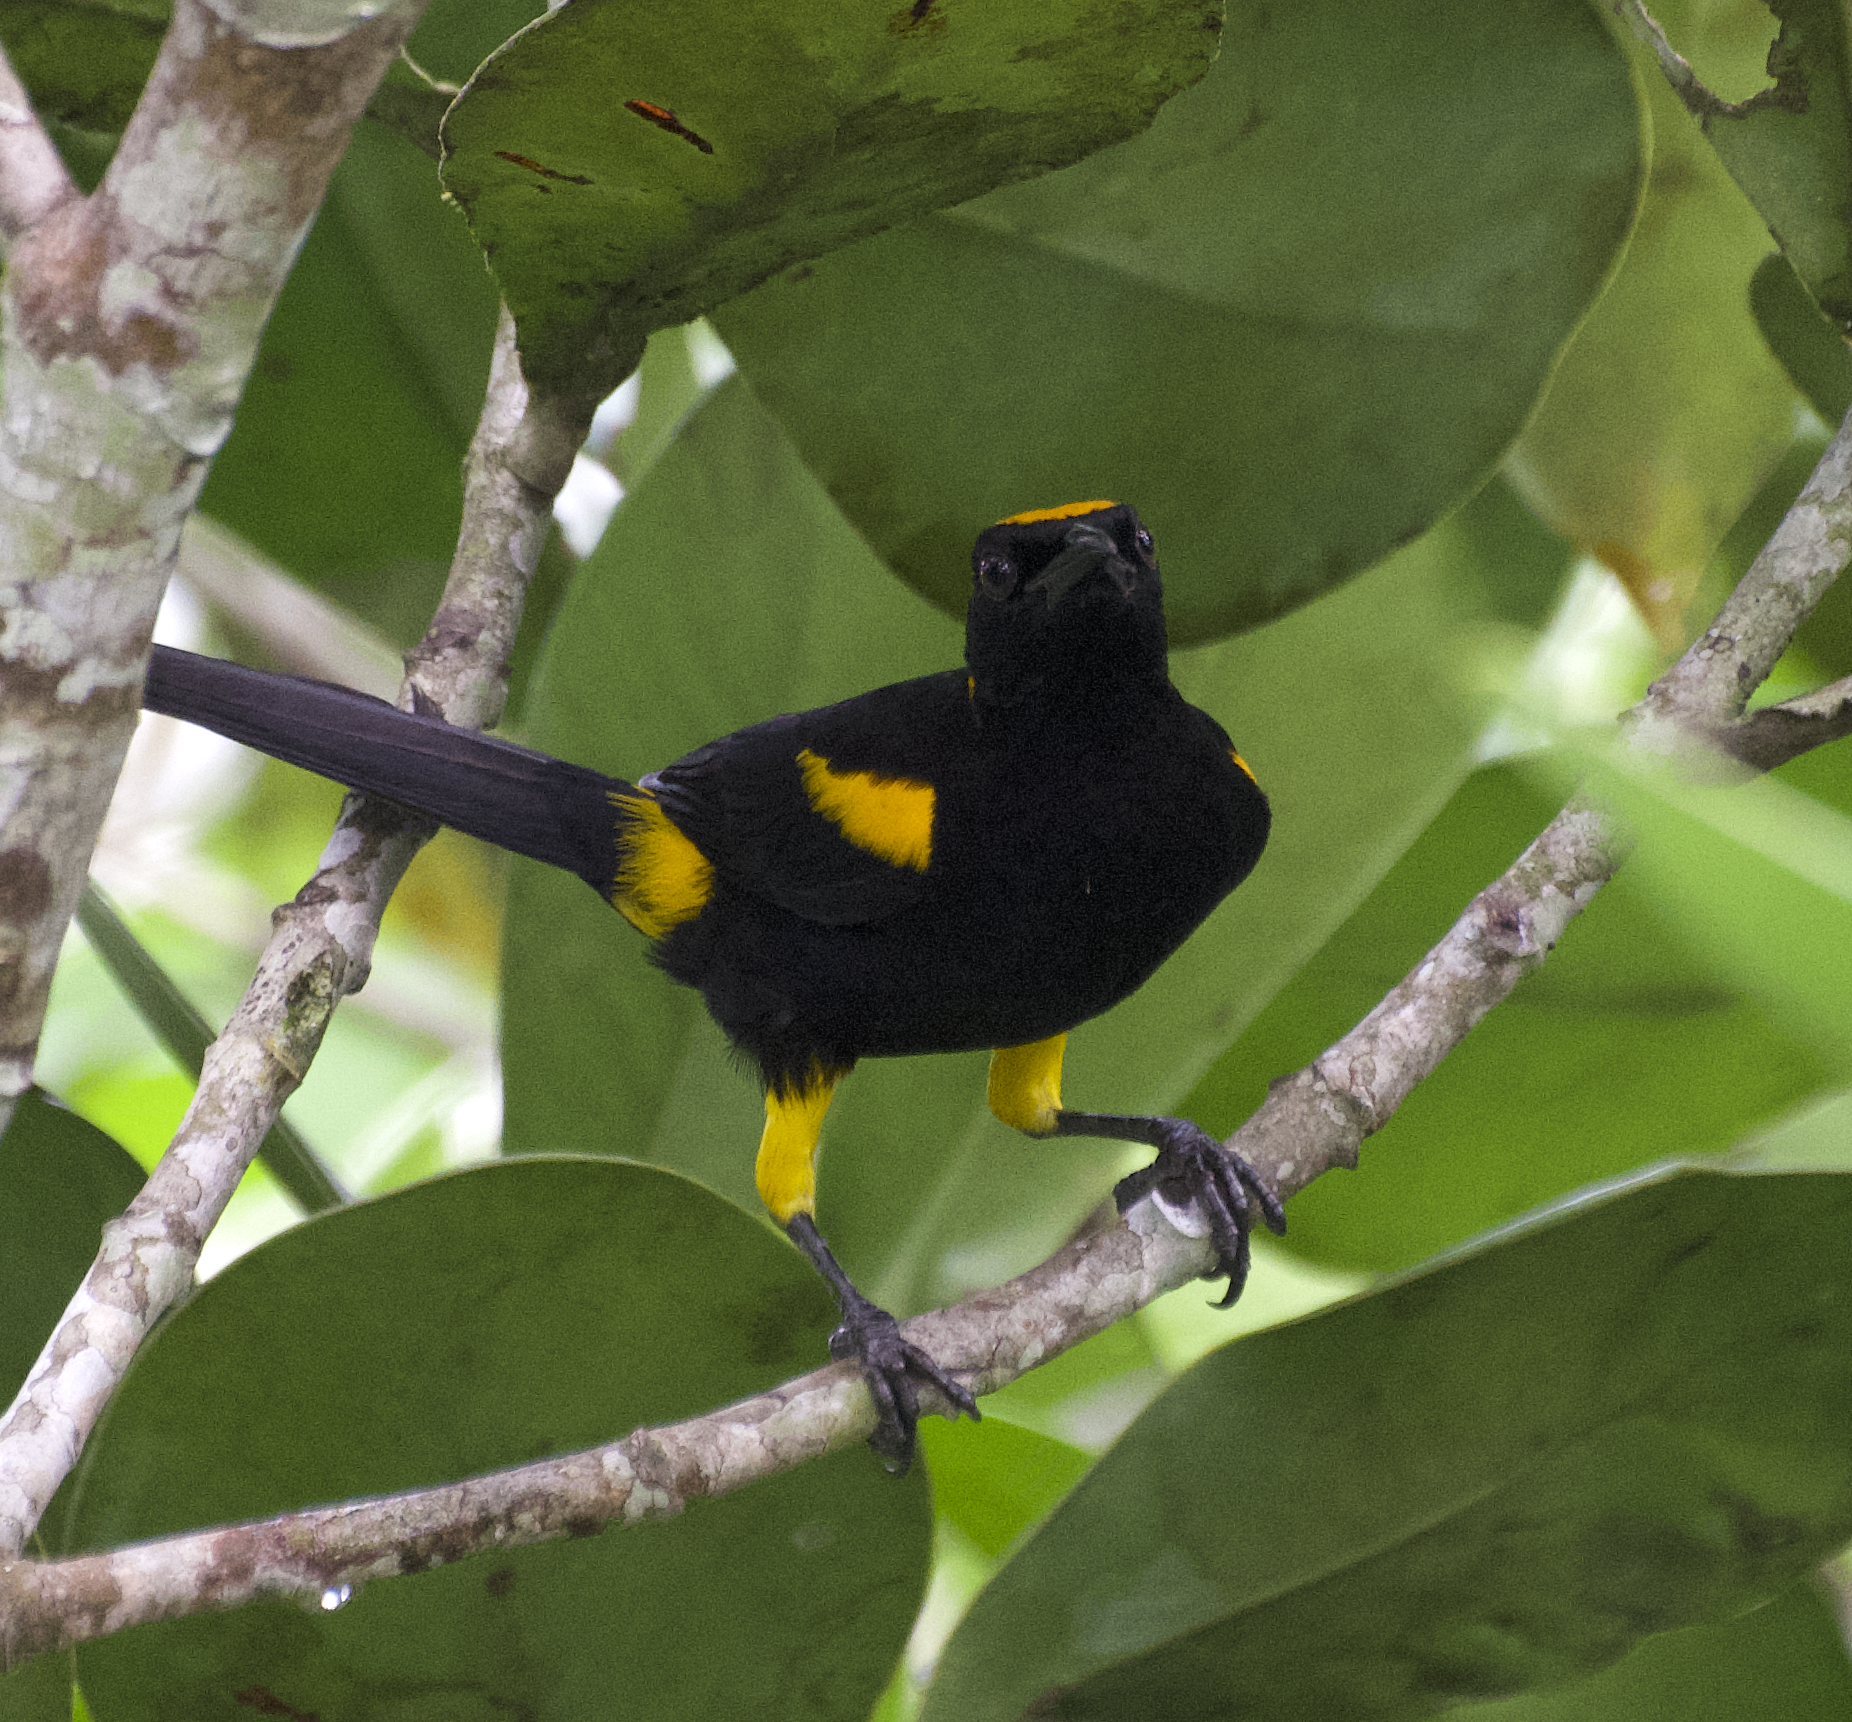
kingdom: Animalia
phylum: Chordata
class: Aves
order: Passeriformes
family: Icteridae
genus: Icterus
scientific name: Icterus cayanensis
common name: Epaulet oriole
